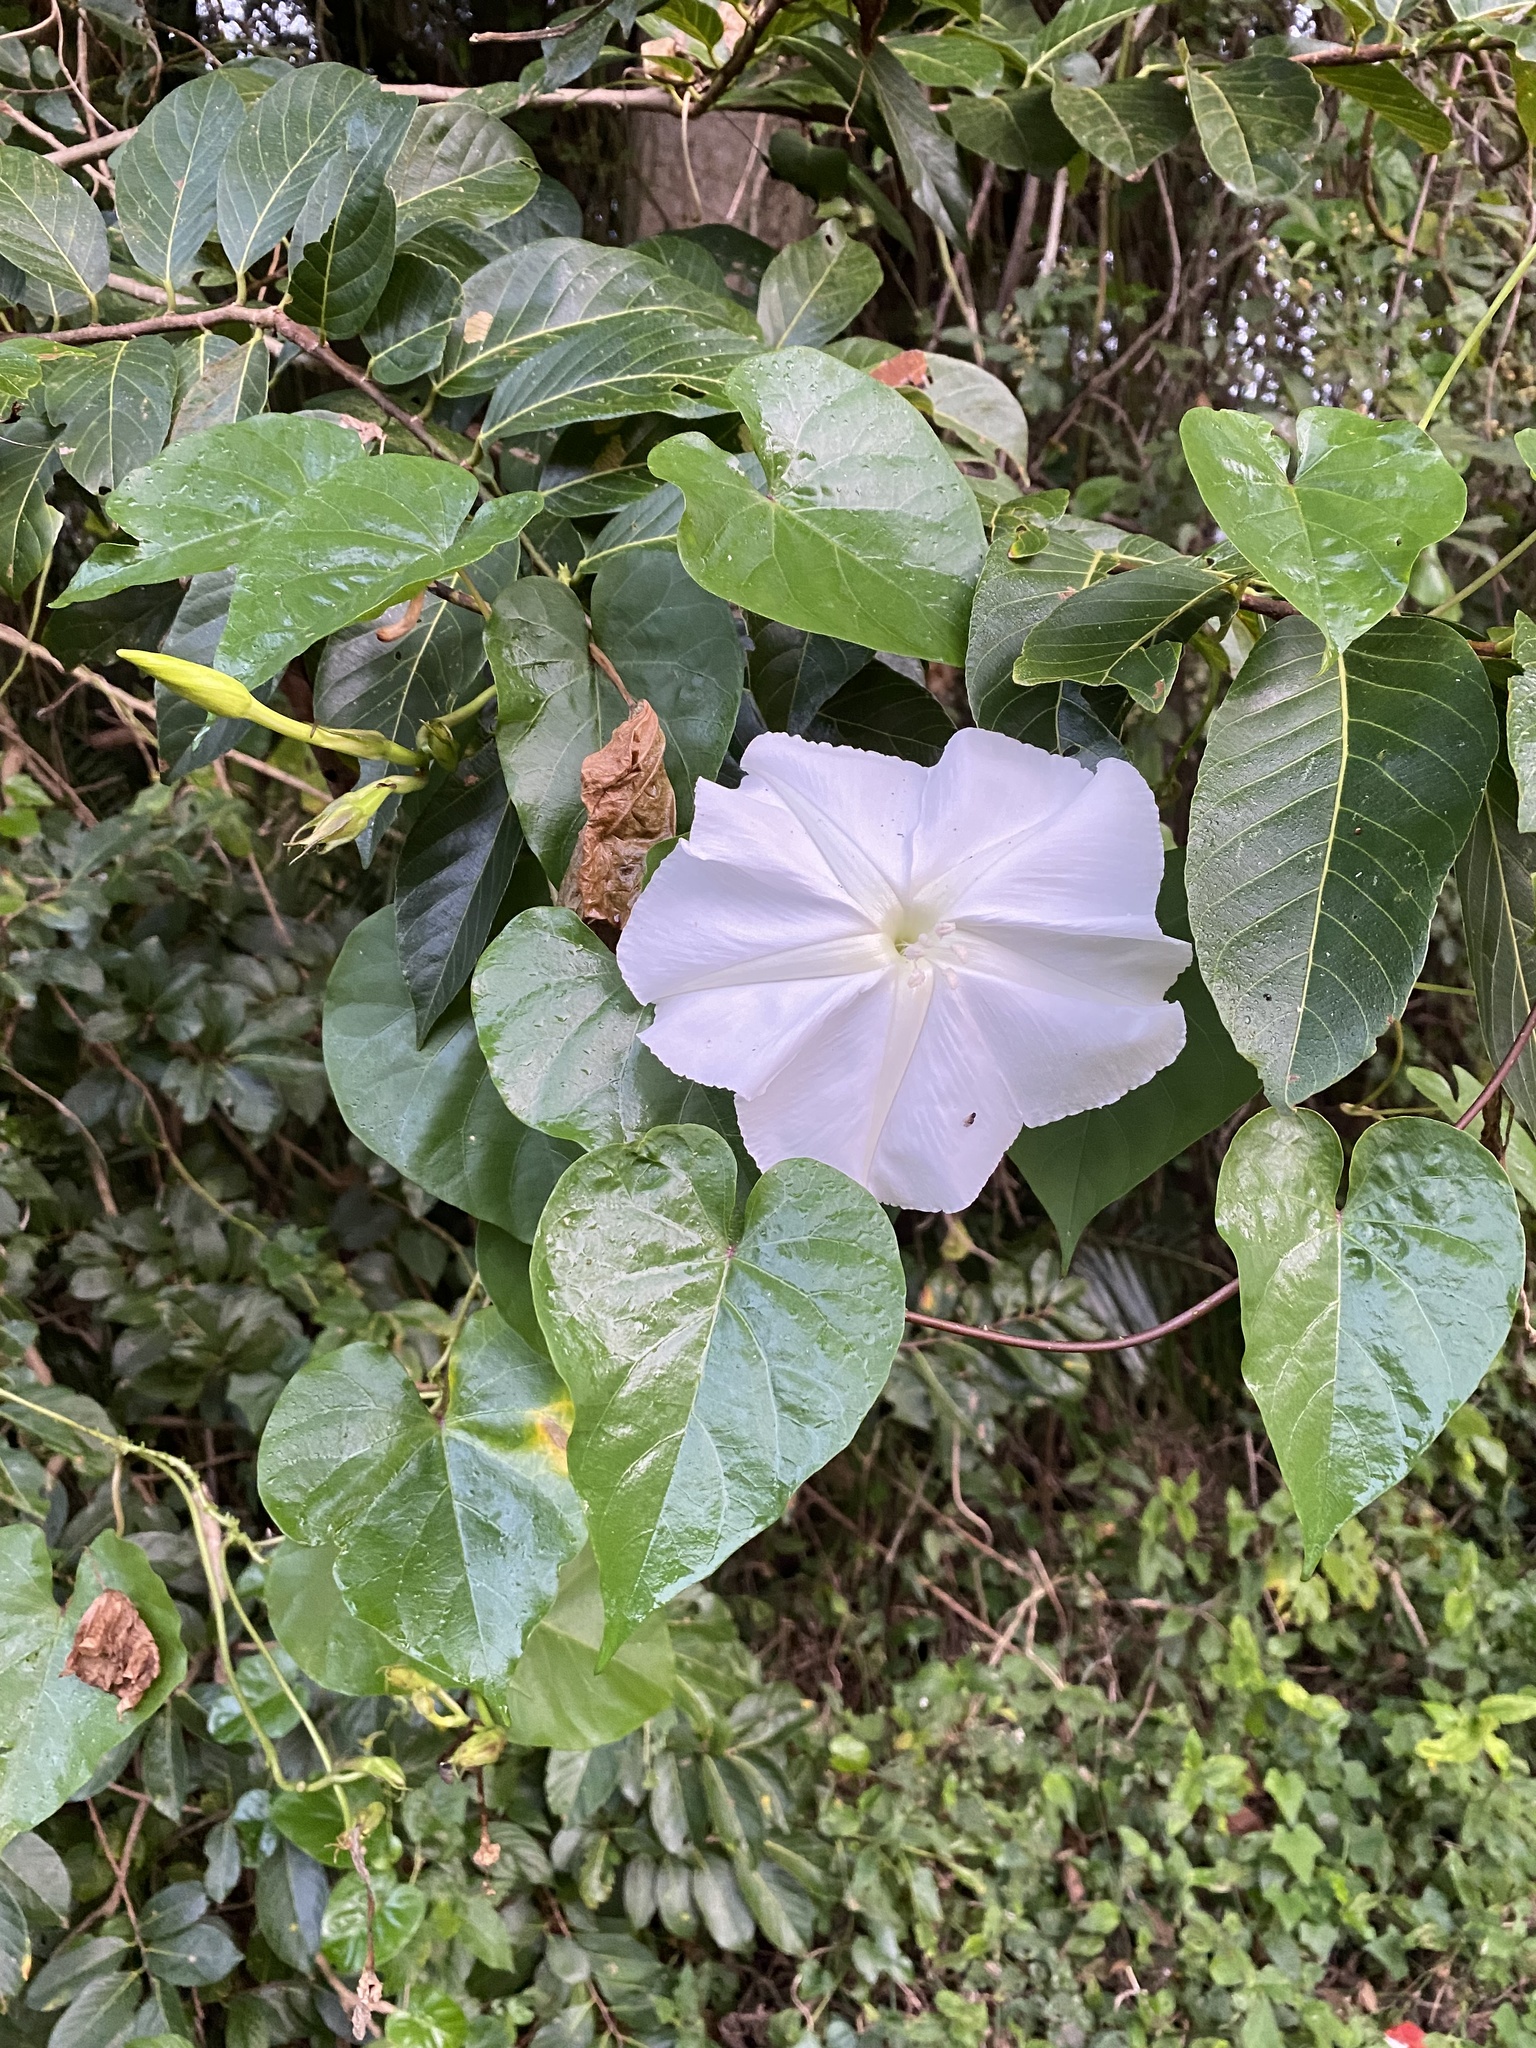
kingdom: Plantae
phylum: Tracheophyta
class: Magnoliopsida
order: Solanales
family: Convolvulaceae
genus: Ipomoea
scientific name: Ipomoea alba
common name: Moonflower
